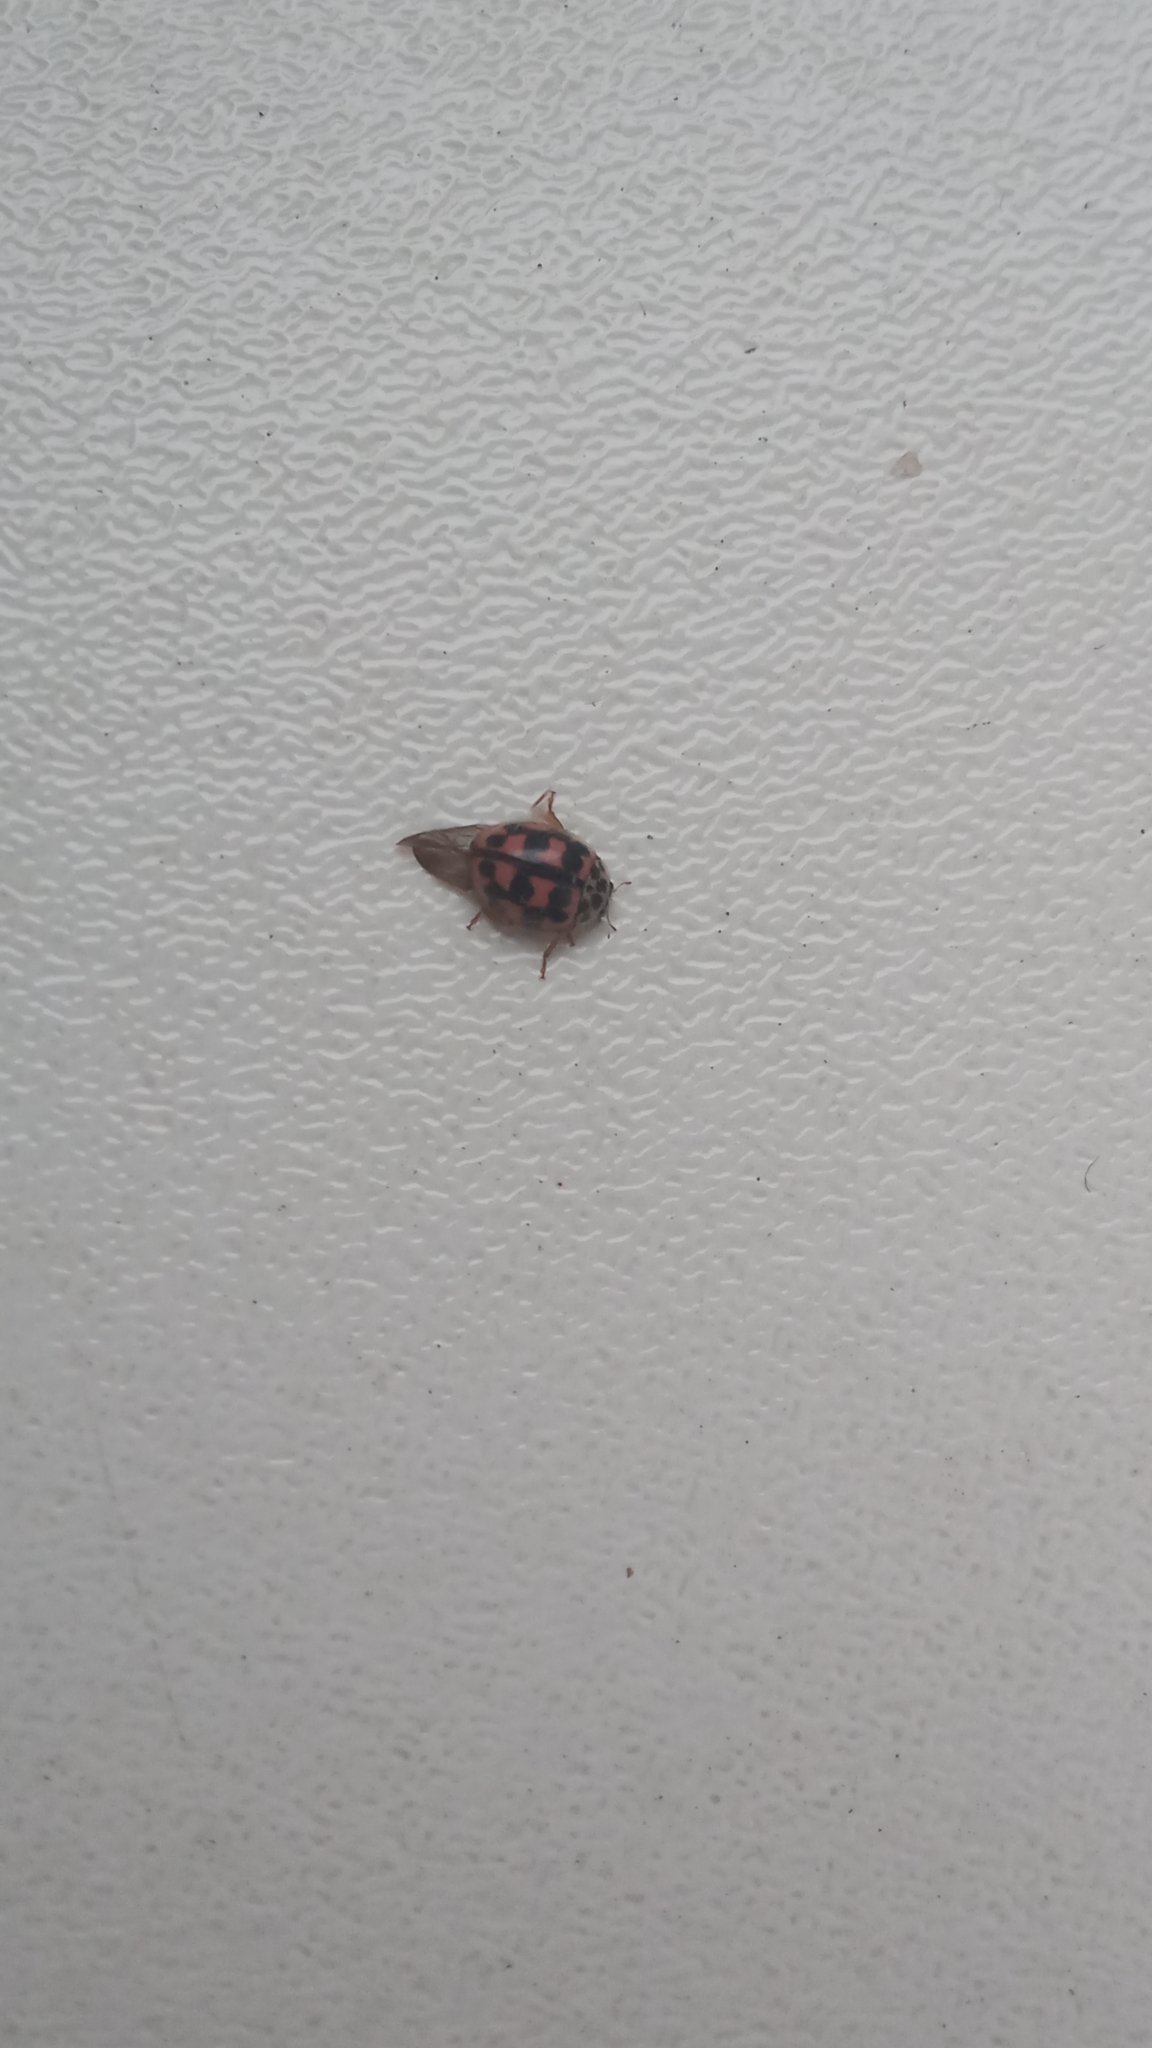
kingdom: Animalia
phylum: Arthropoda
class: Insecta
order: Coleoptera
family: Coccinellidae
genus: Oenopia
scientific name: Oenopia conglobata
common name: Ladybird beetle
